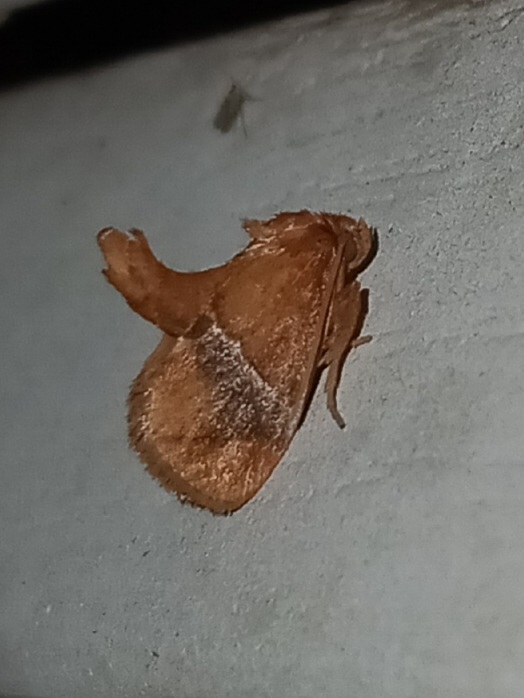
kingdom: Animalia
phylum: Arthropoda
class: Insecta
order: Lepidoptera
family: Limacodidae
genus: Lithacodes
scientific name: Lithacodes fasciola
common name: Yellow-shouldered slug moth
